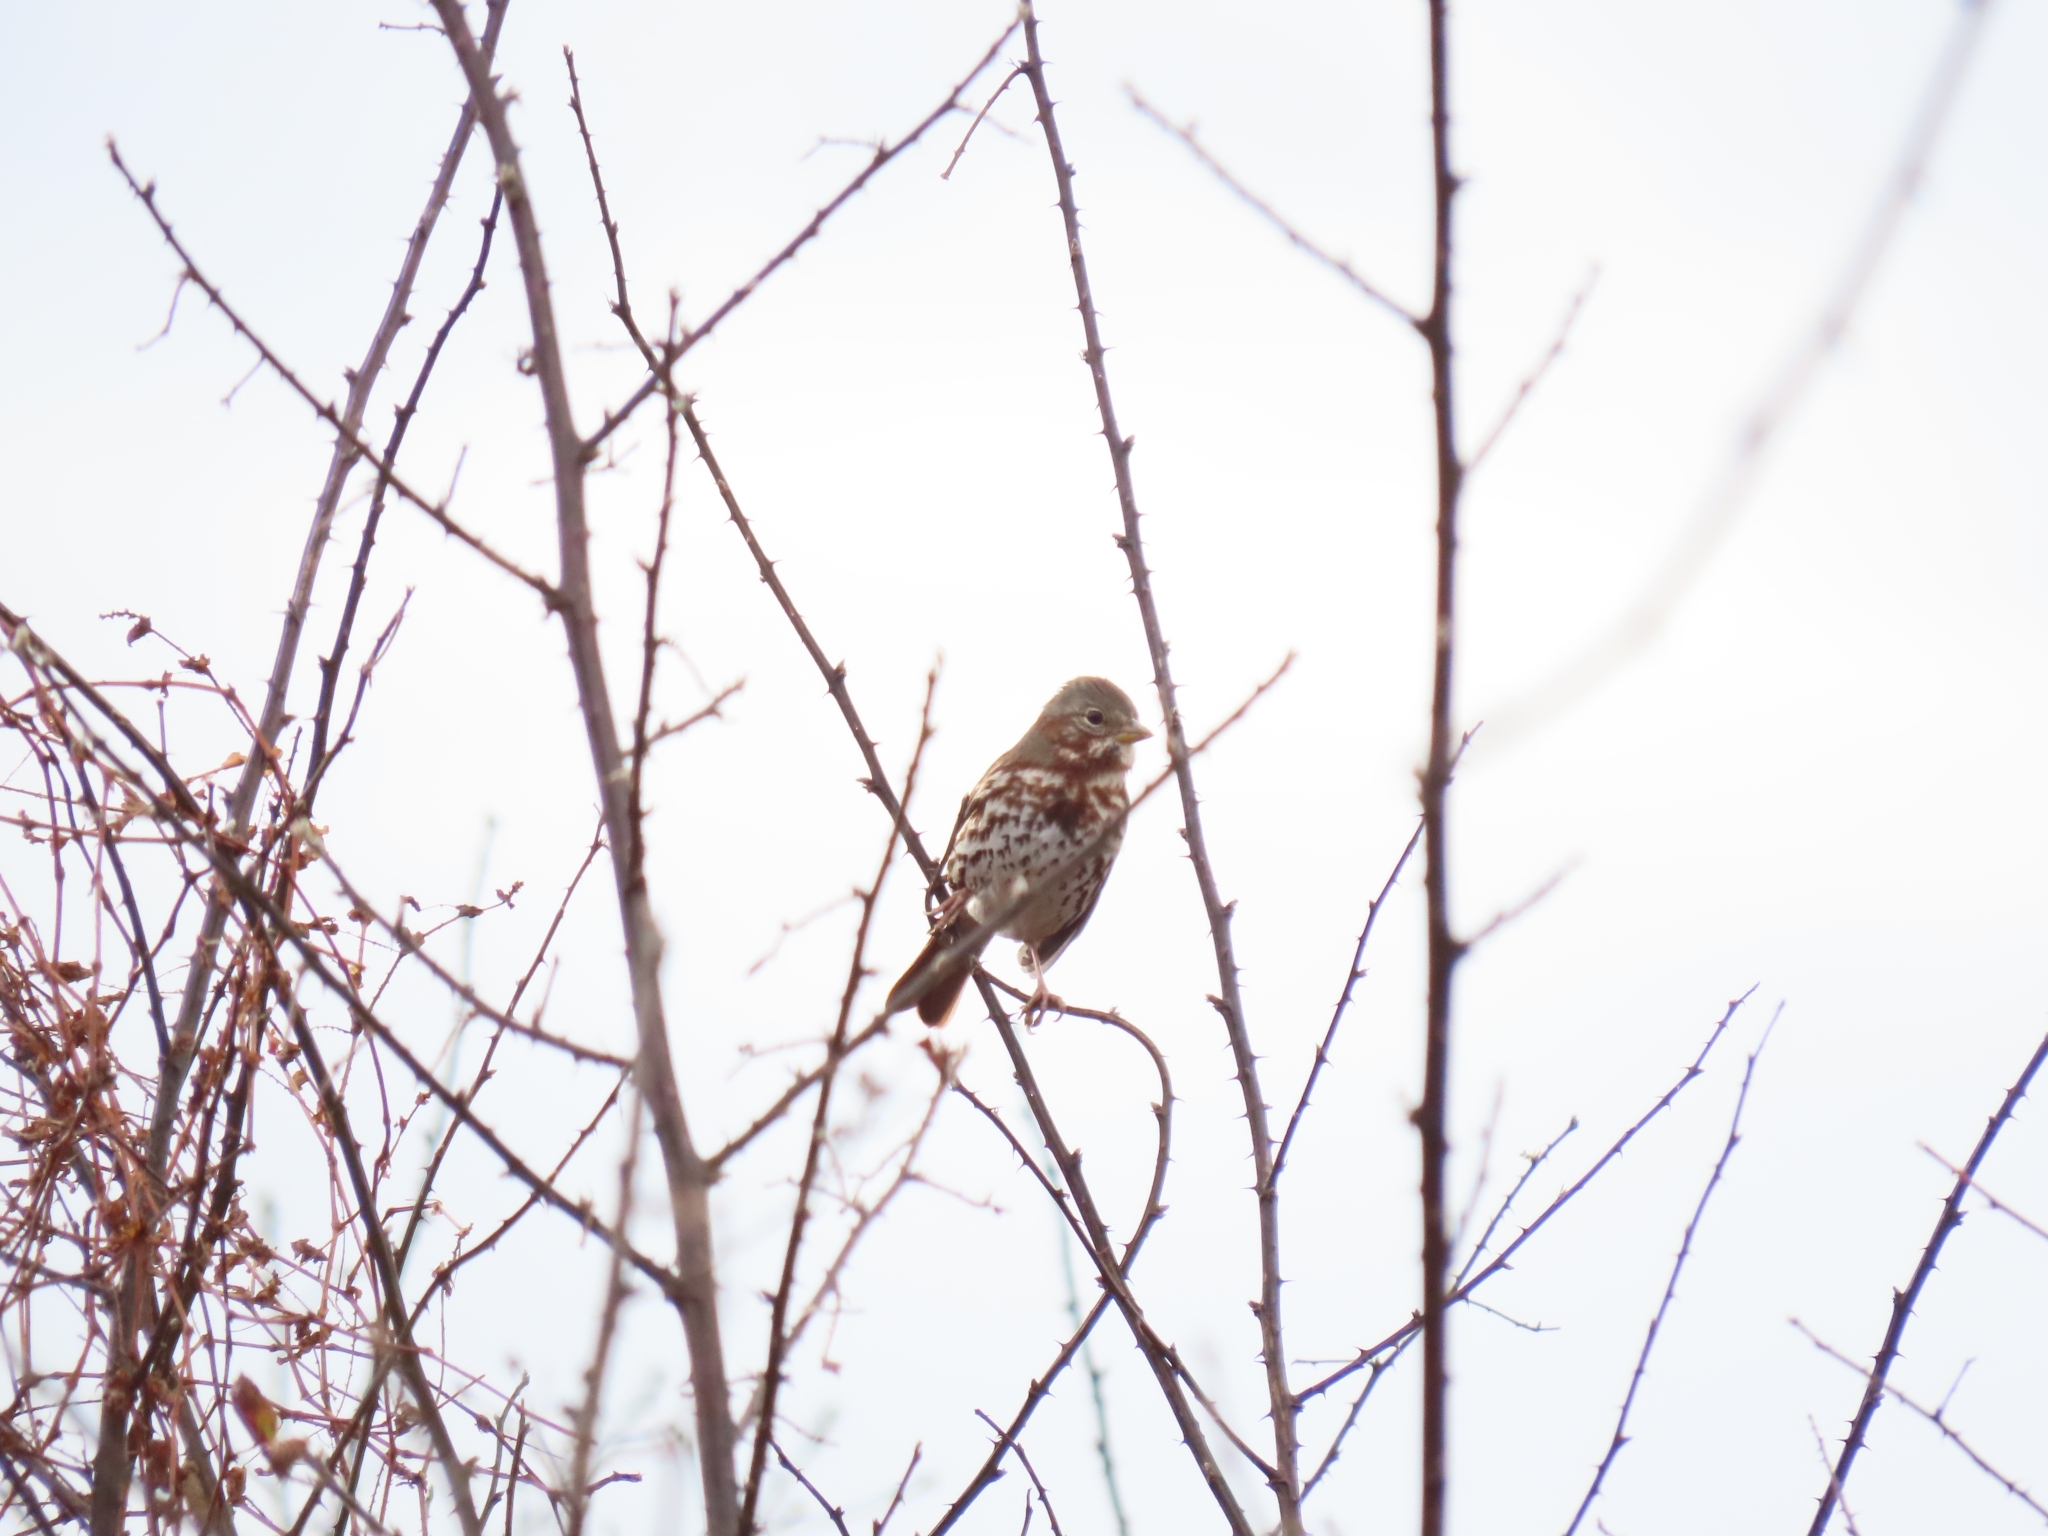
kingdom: Animalia
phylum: Chordata
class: Aves
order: Passeriformes
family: Passerellidae
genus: Passerella
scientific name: Passerella iliaca
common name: Fox sparrow
